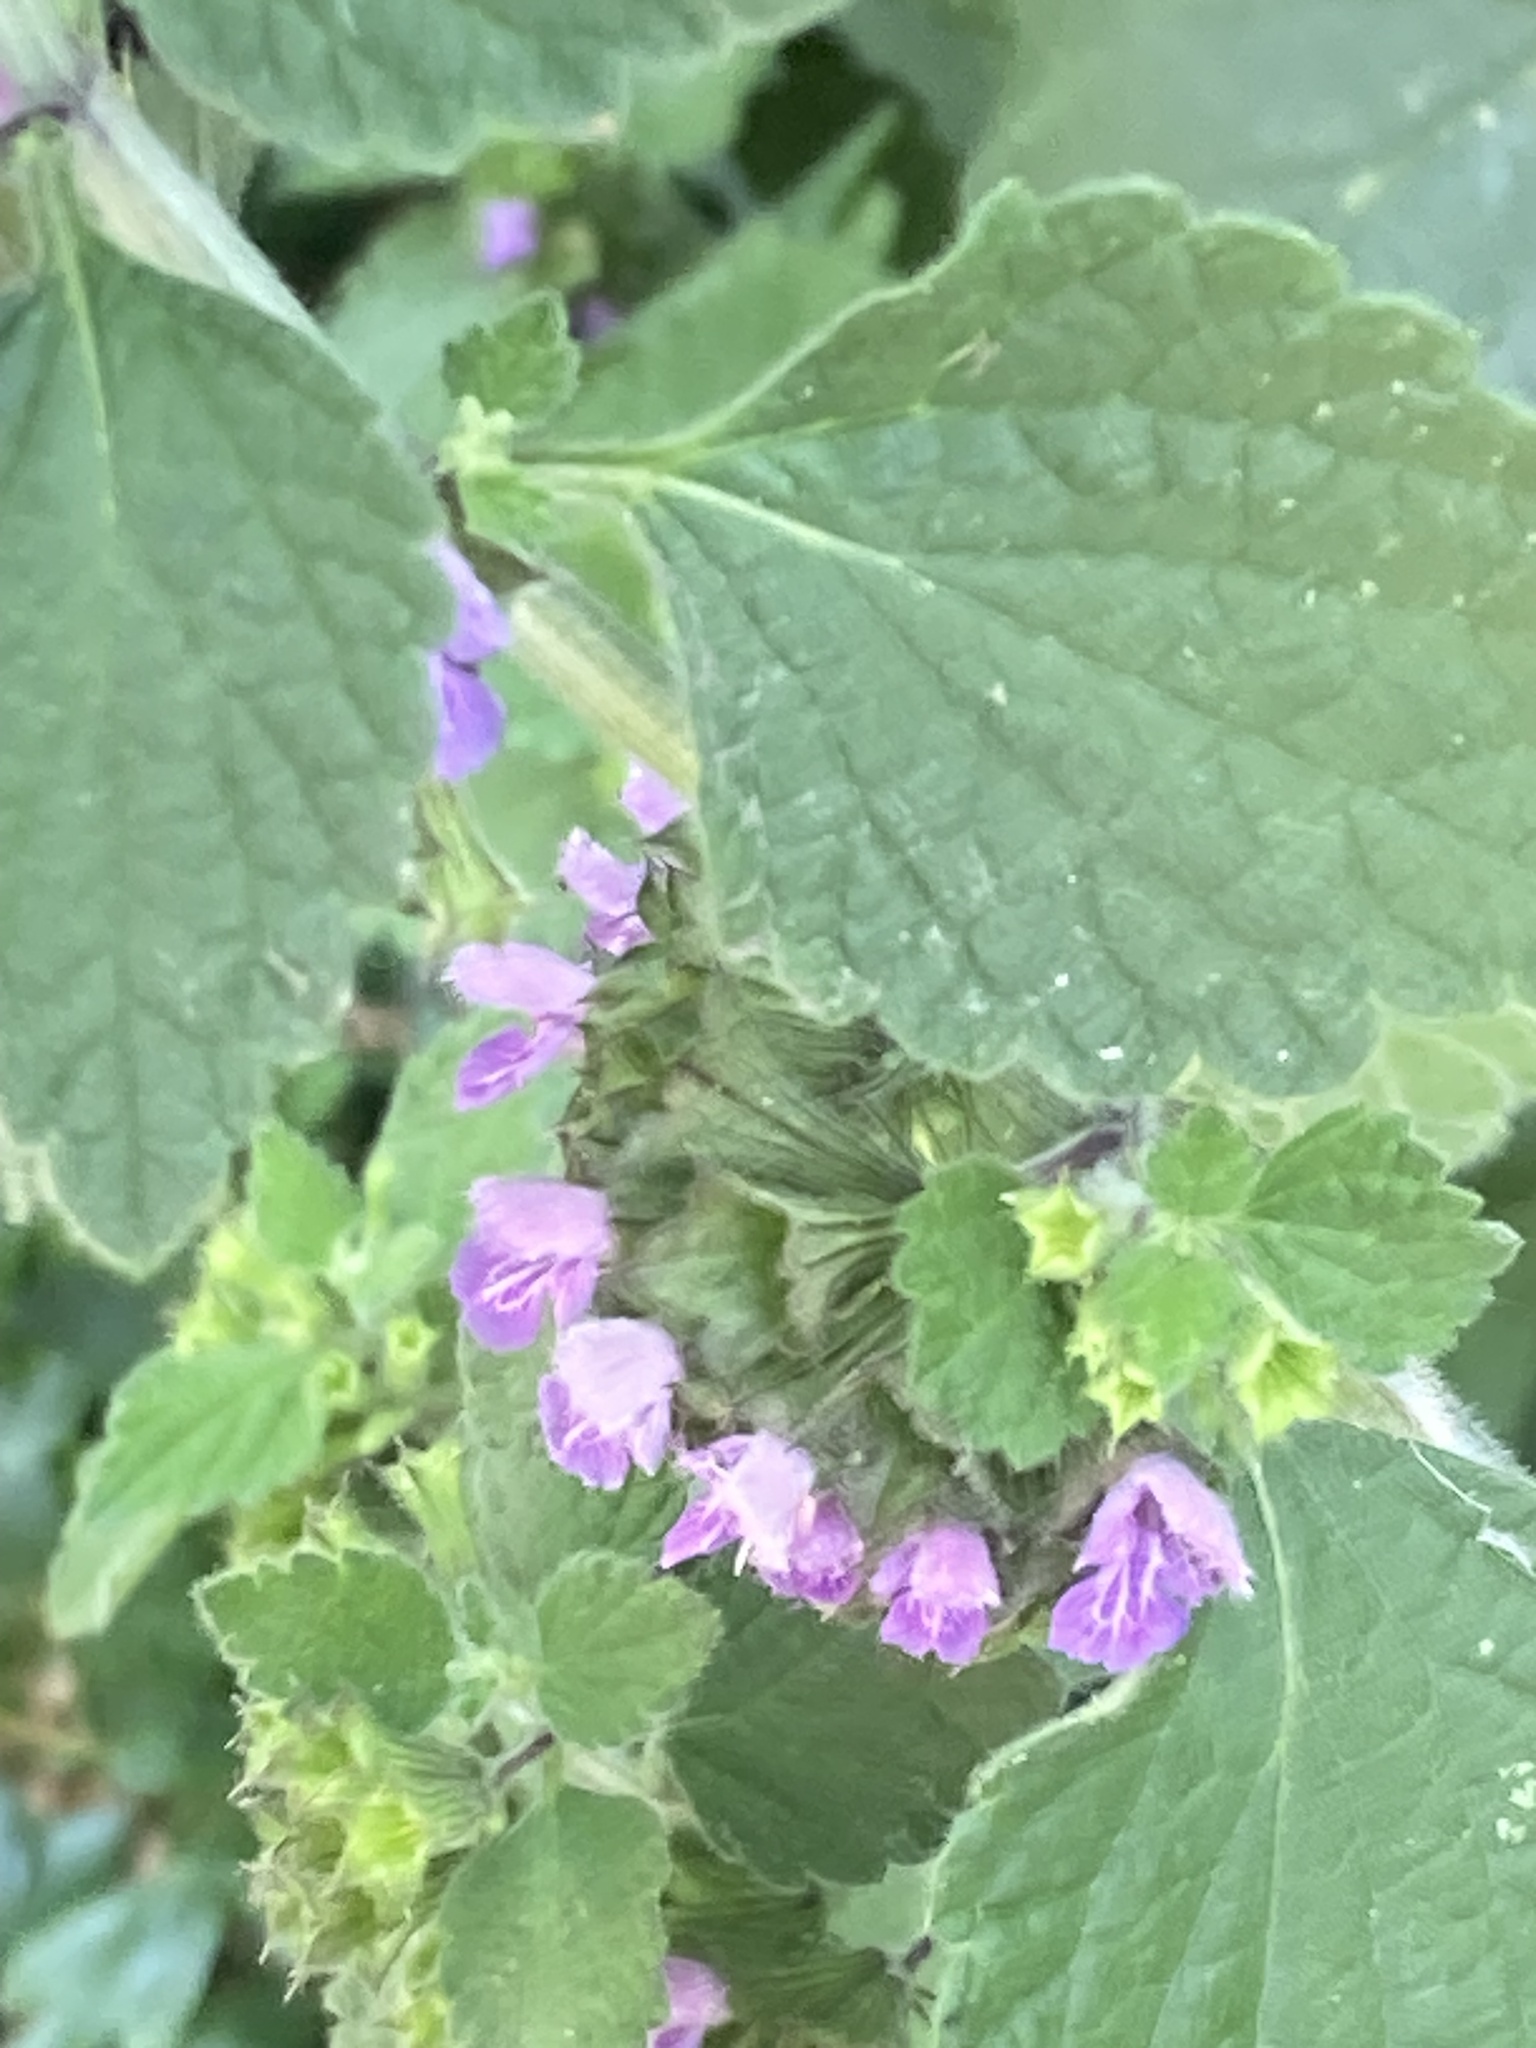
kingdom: Plantae
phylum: Tracheophyta
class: Magnoliopsida
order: Lamiales
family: Lamiaceae
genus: Ballota
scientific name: Ballota nigra
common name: Black horehound
